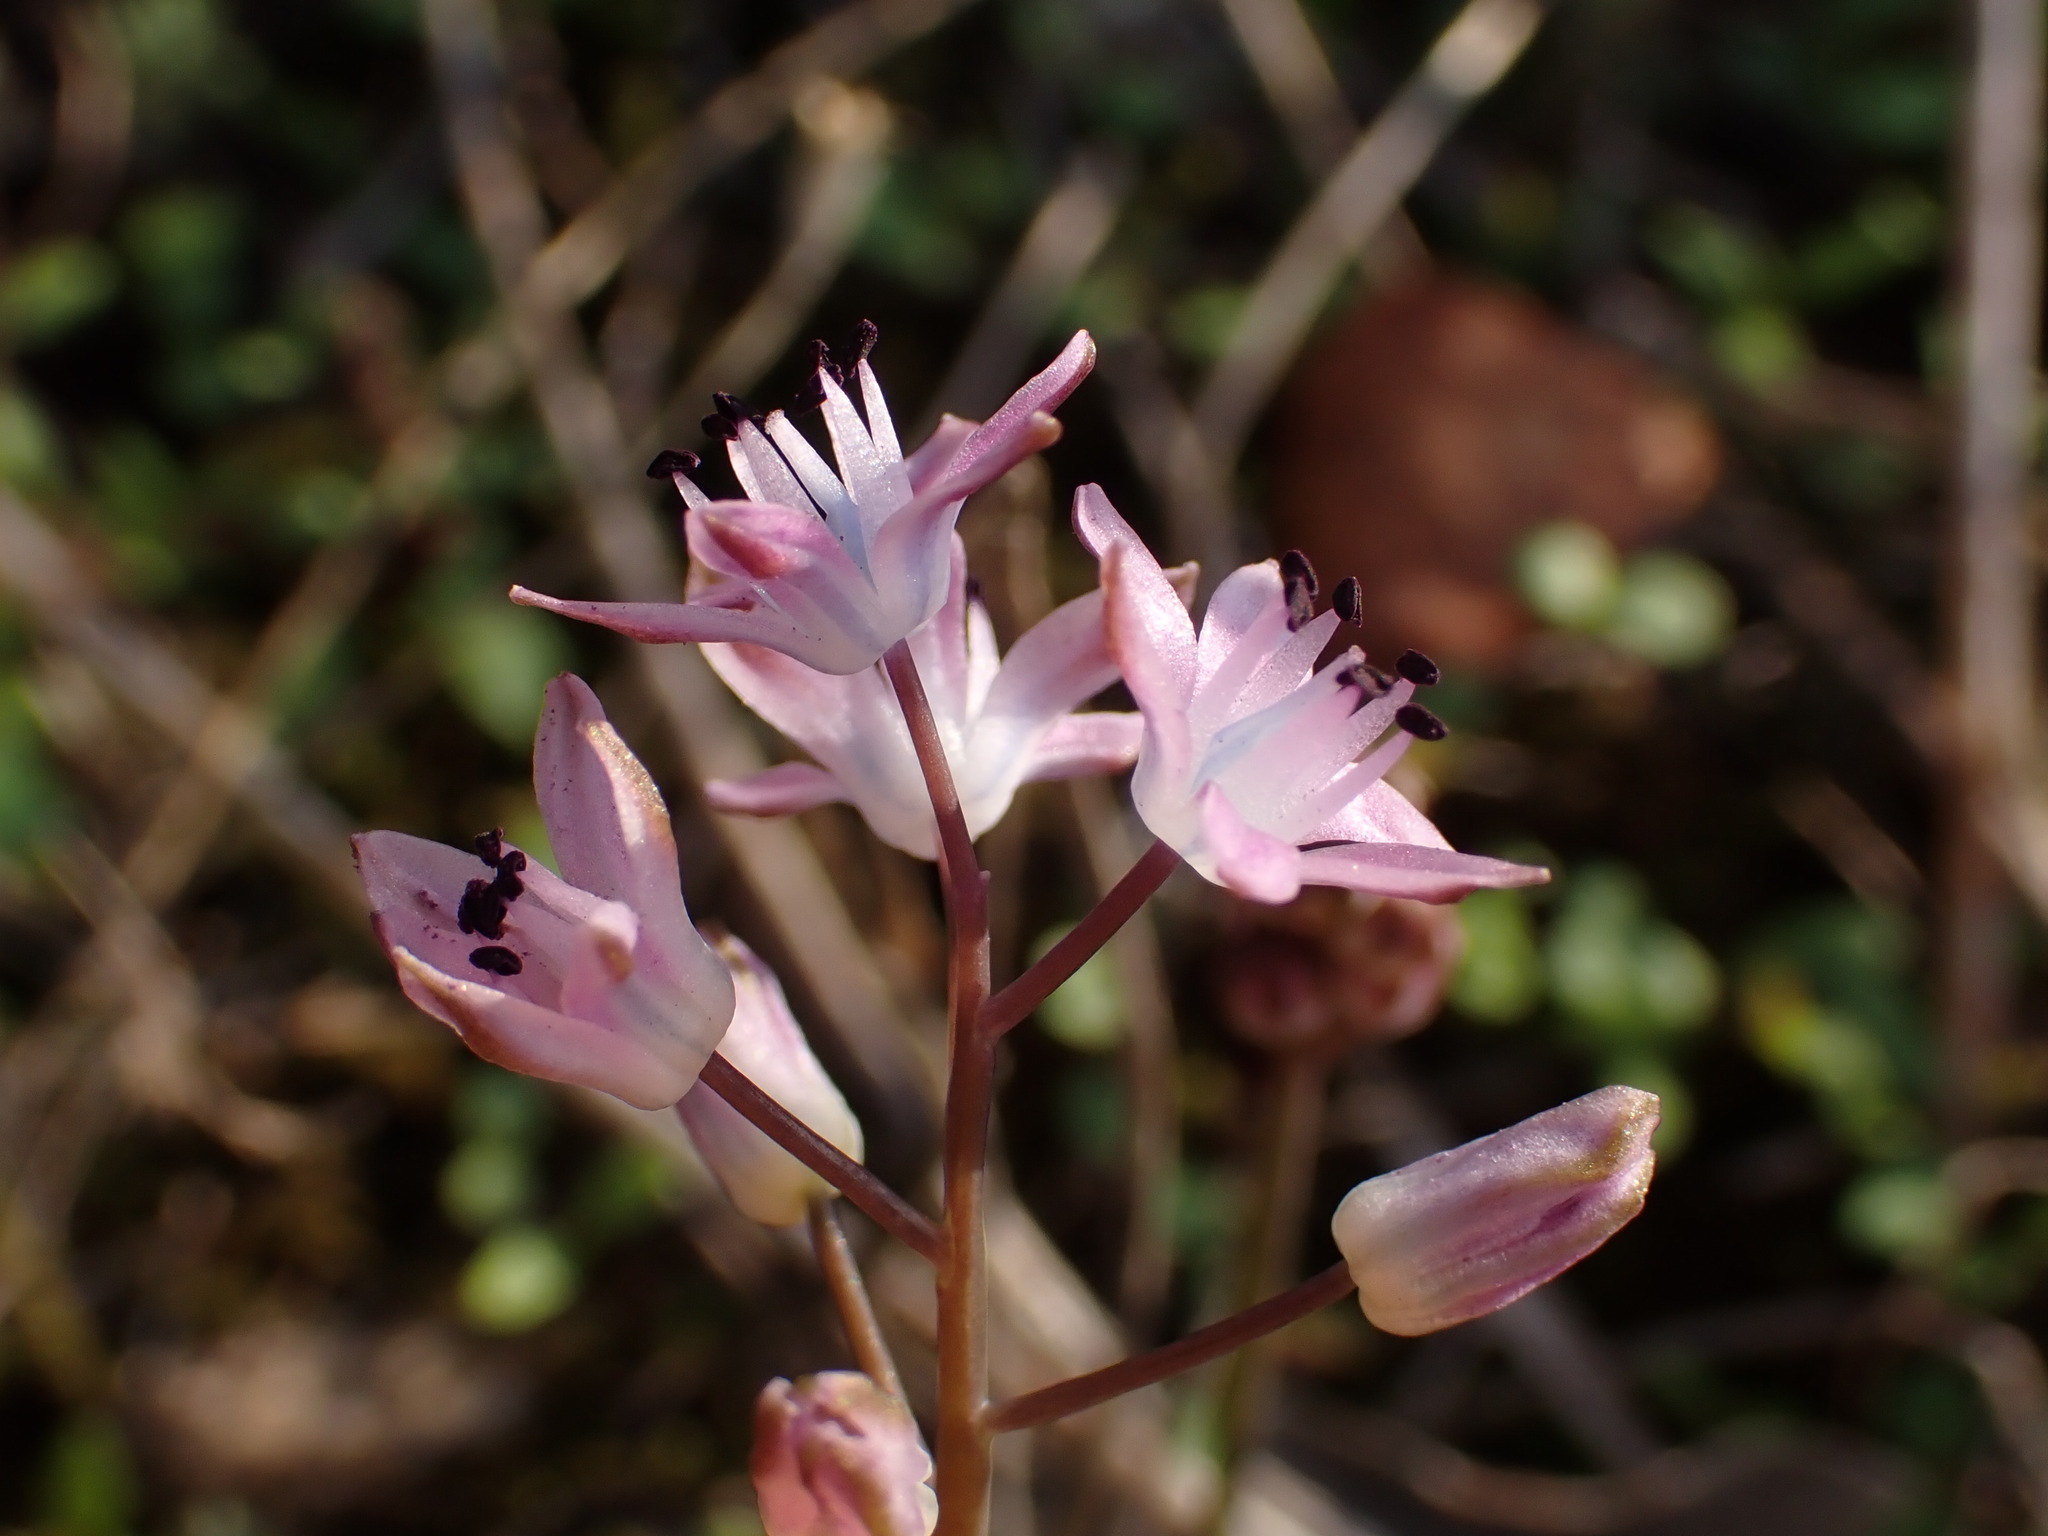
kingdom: Plantae
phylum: Tracheophyta
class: Liliopsida
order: Asparagales
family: Asparagaceae
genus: Prospero
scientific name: Prospero autumnale
